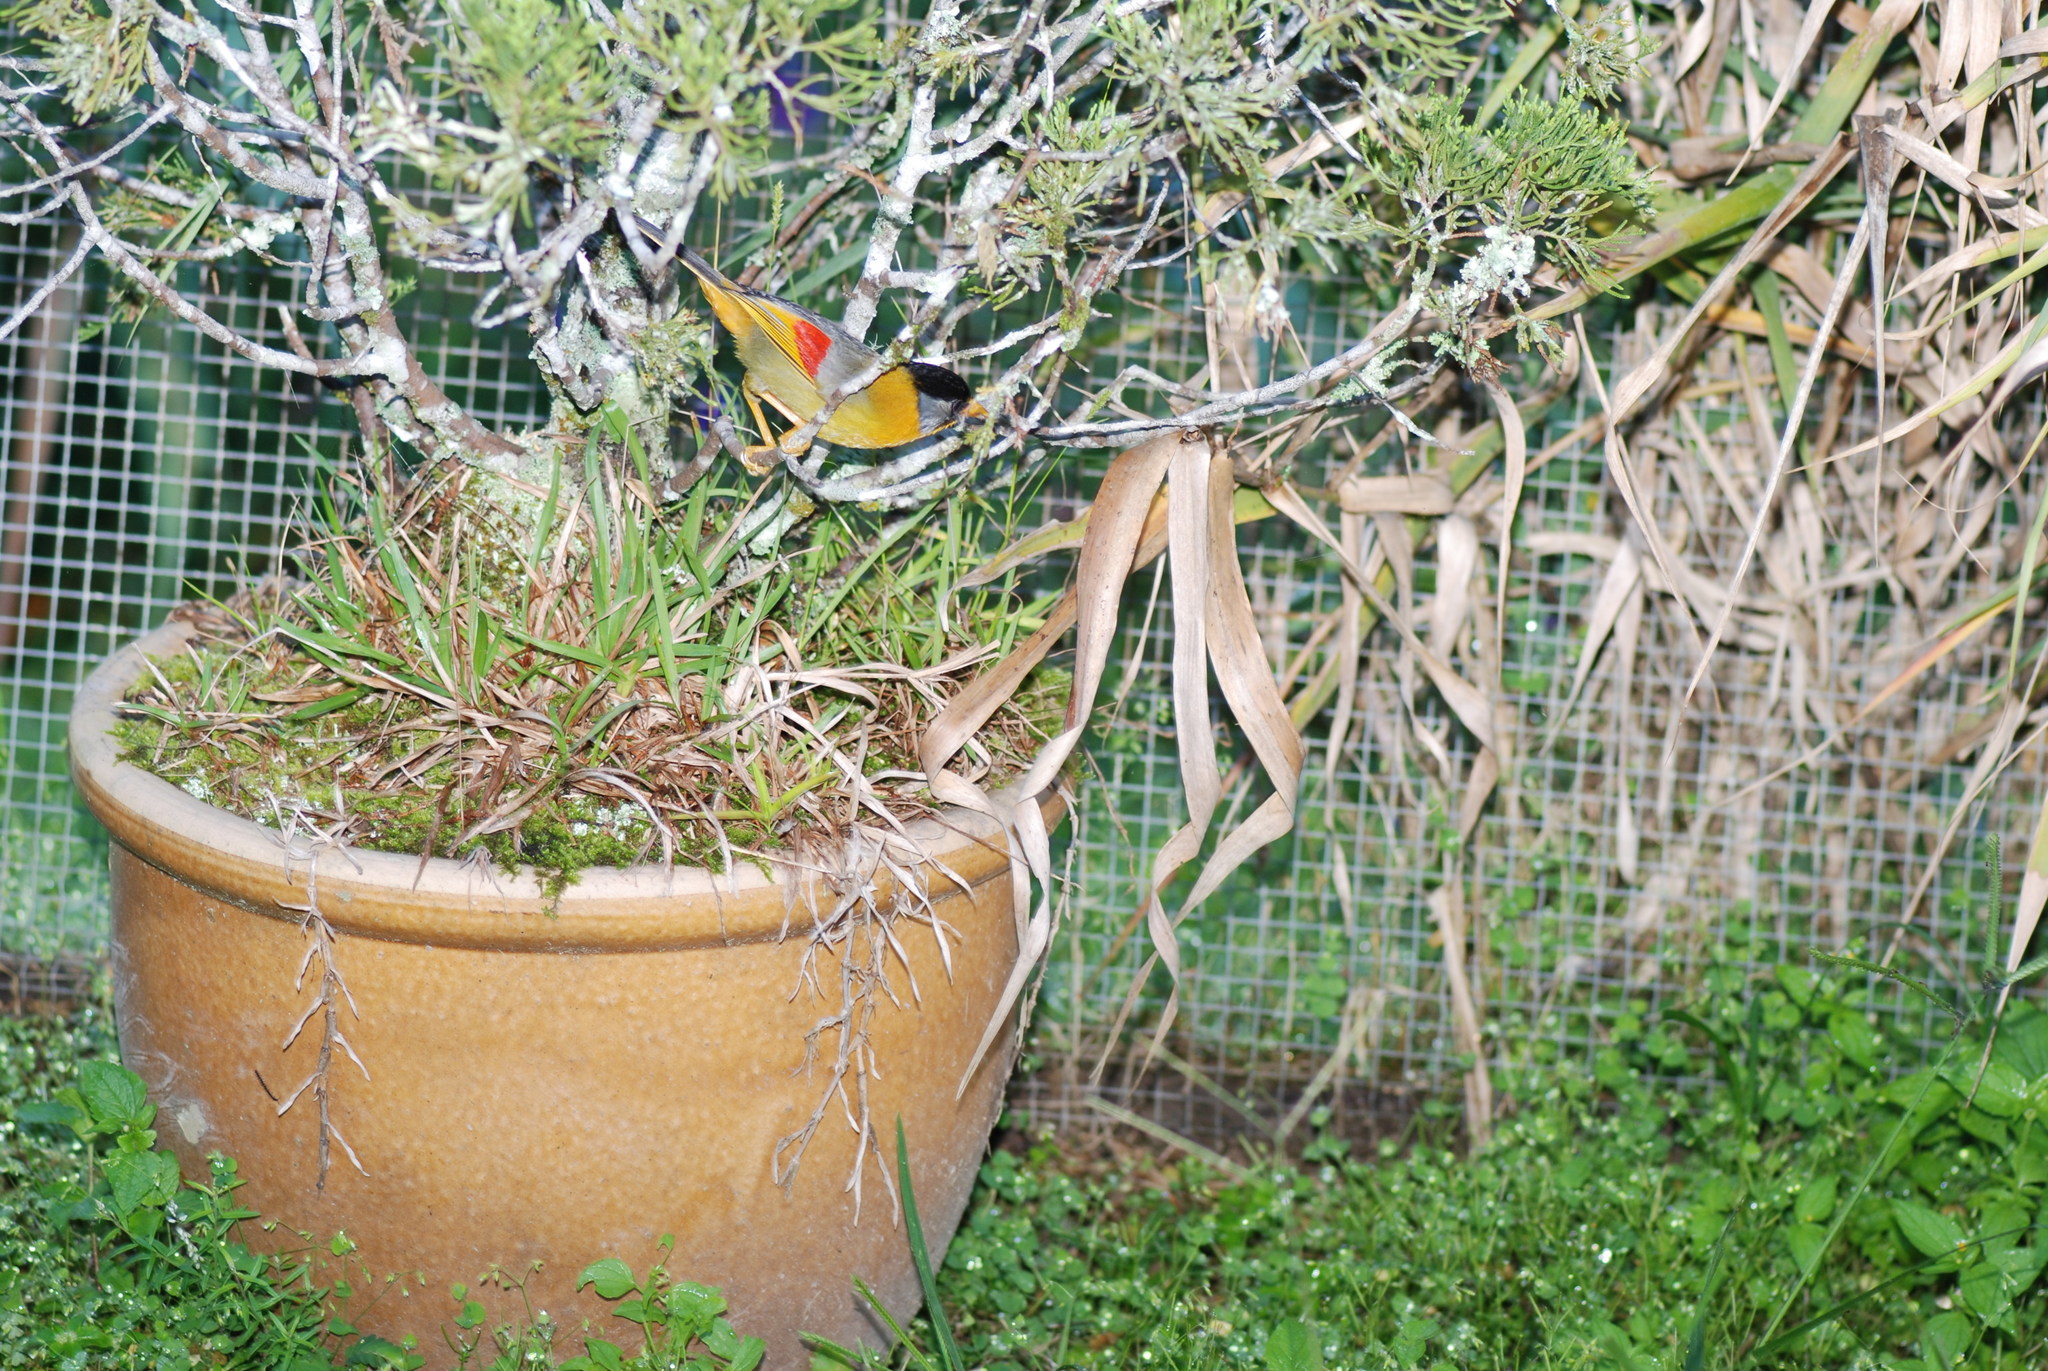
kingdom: Animalia
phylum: Chordata
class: Aves
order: Passeriformes
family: Leiothrichidae
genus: Leiothrix
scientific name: Leiothrix argentauris
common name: Silver-eared mesia
